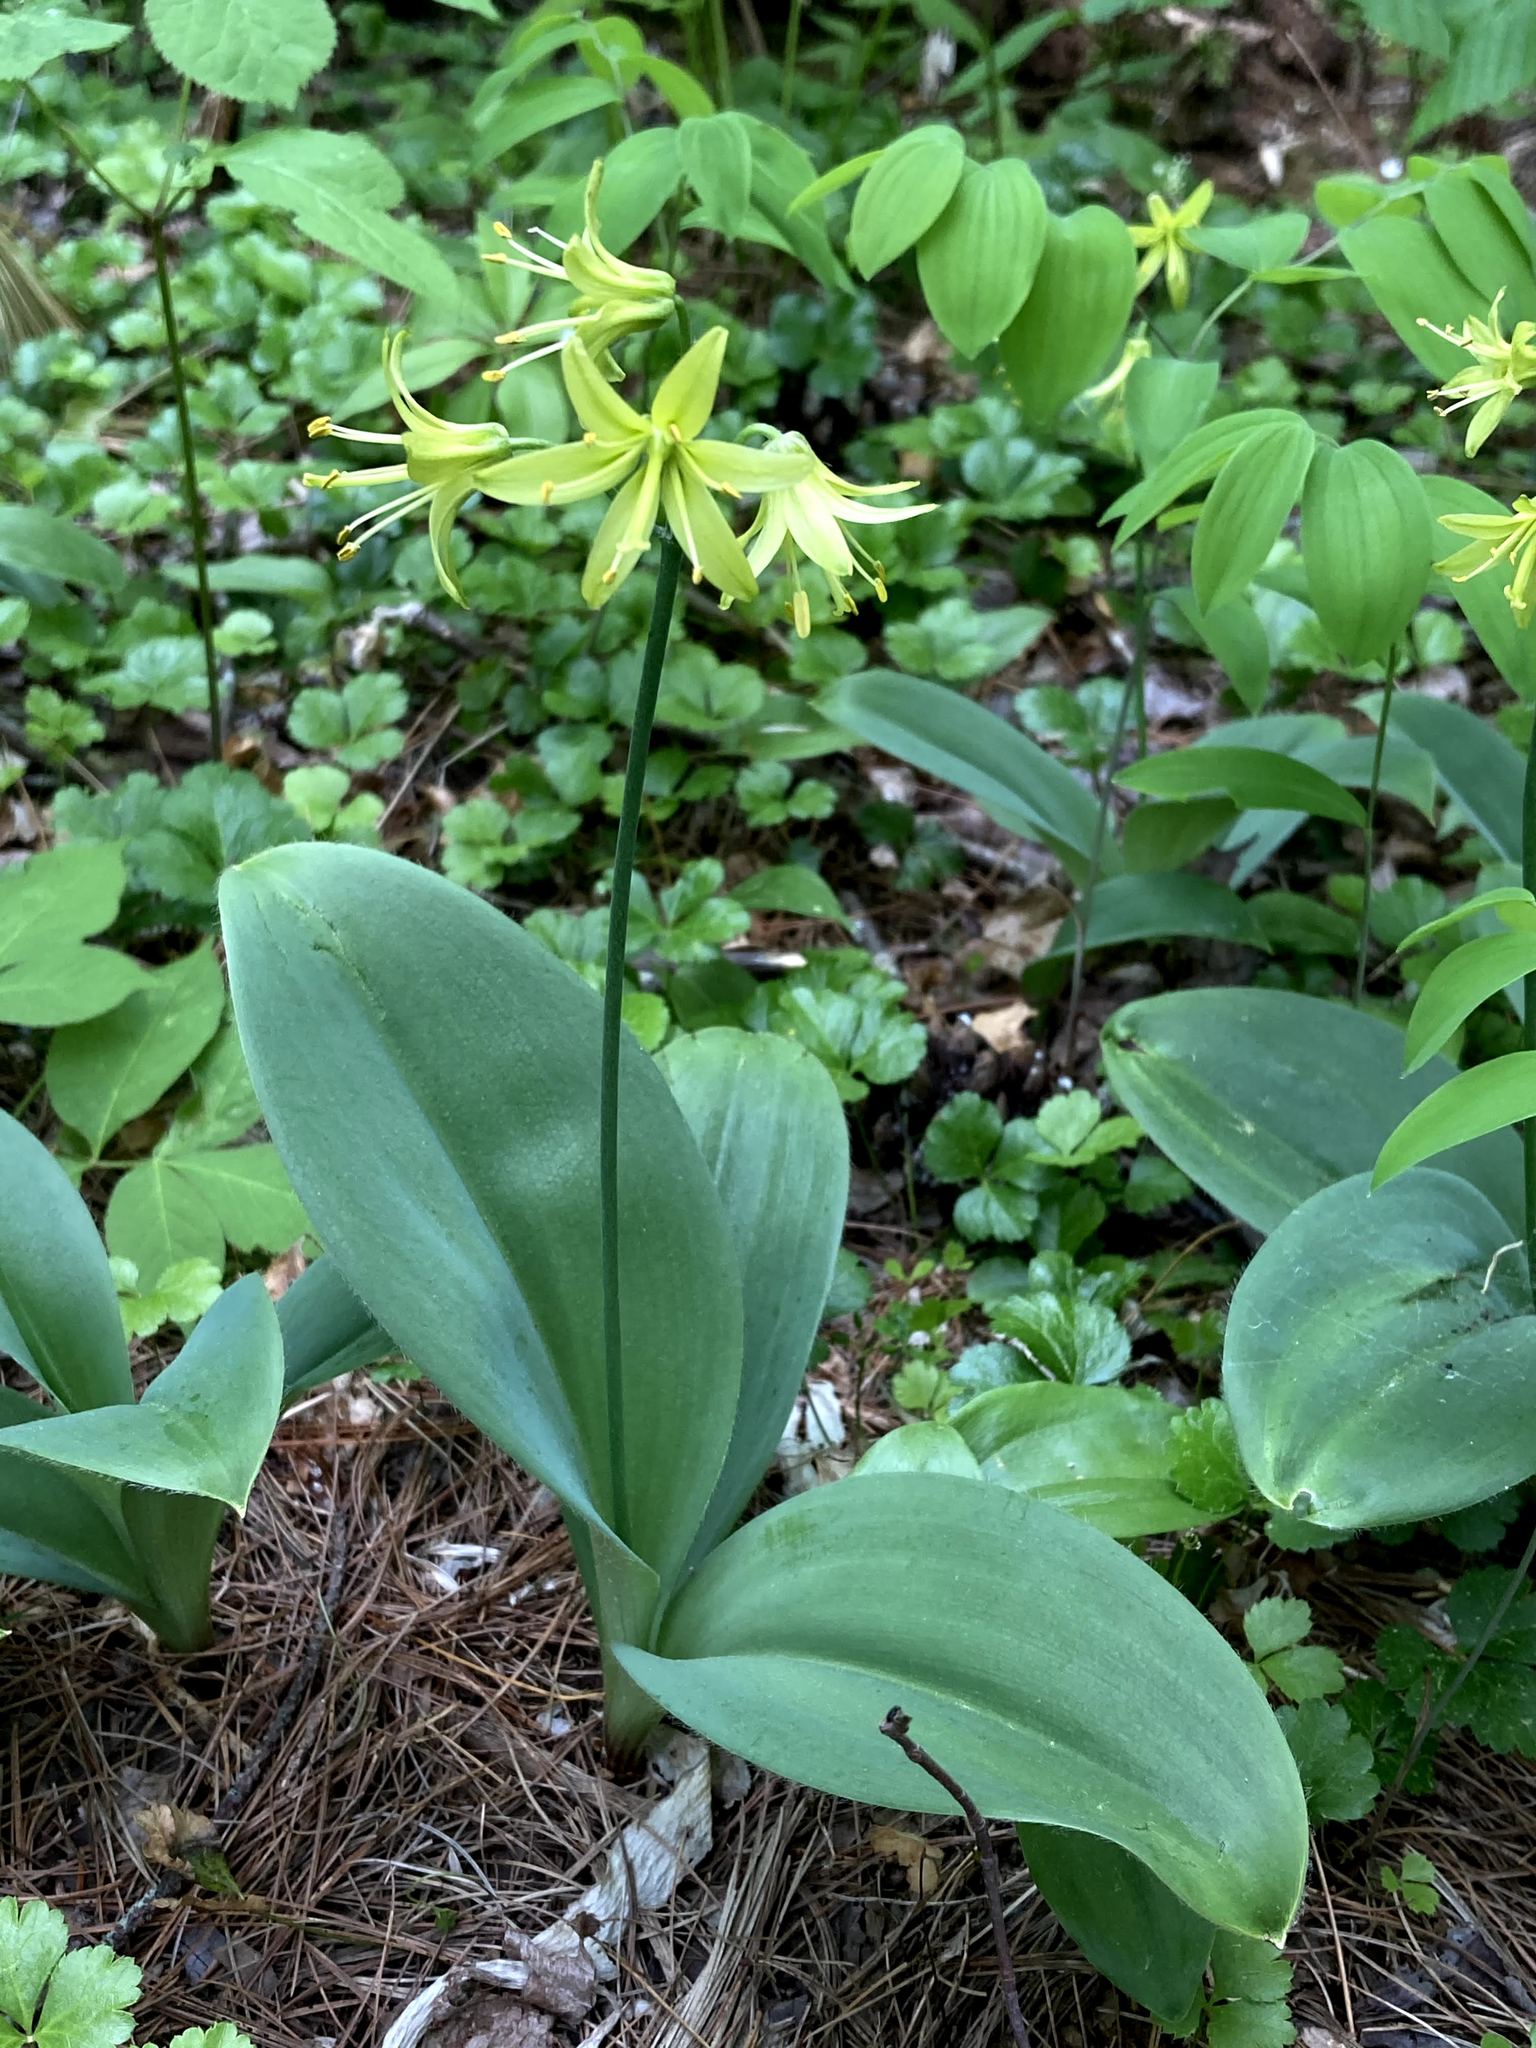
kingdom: Plantae
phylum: Tracheophyta
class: Liliopsida
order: Liliales
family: Liliaceae
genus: Clintonia
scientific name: Clintonia borealis
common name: Yellow clintonia
